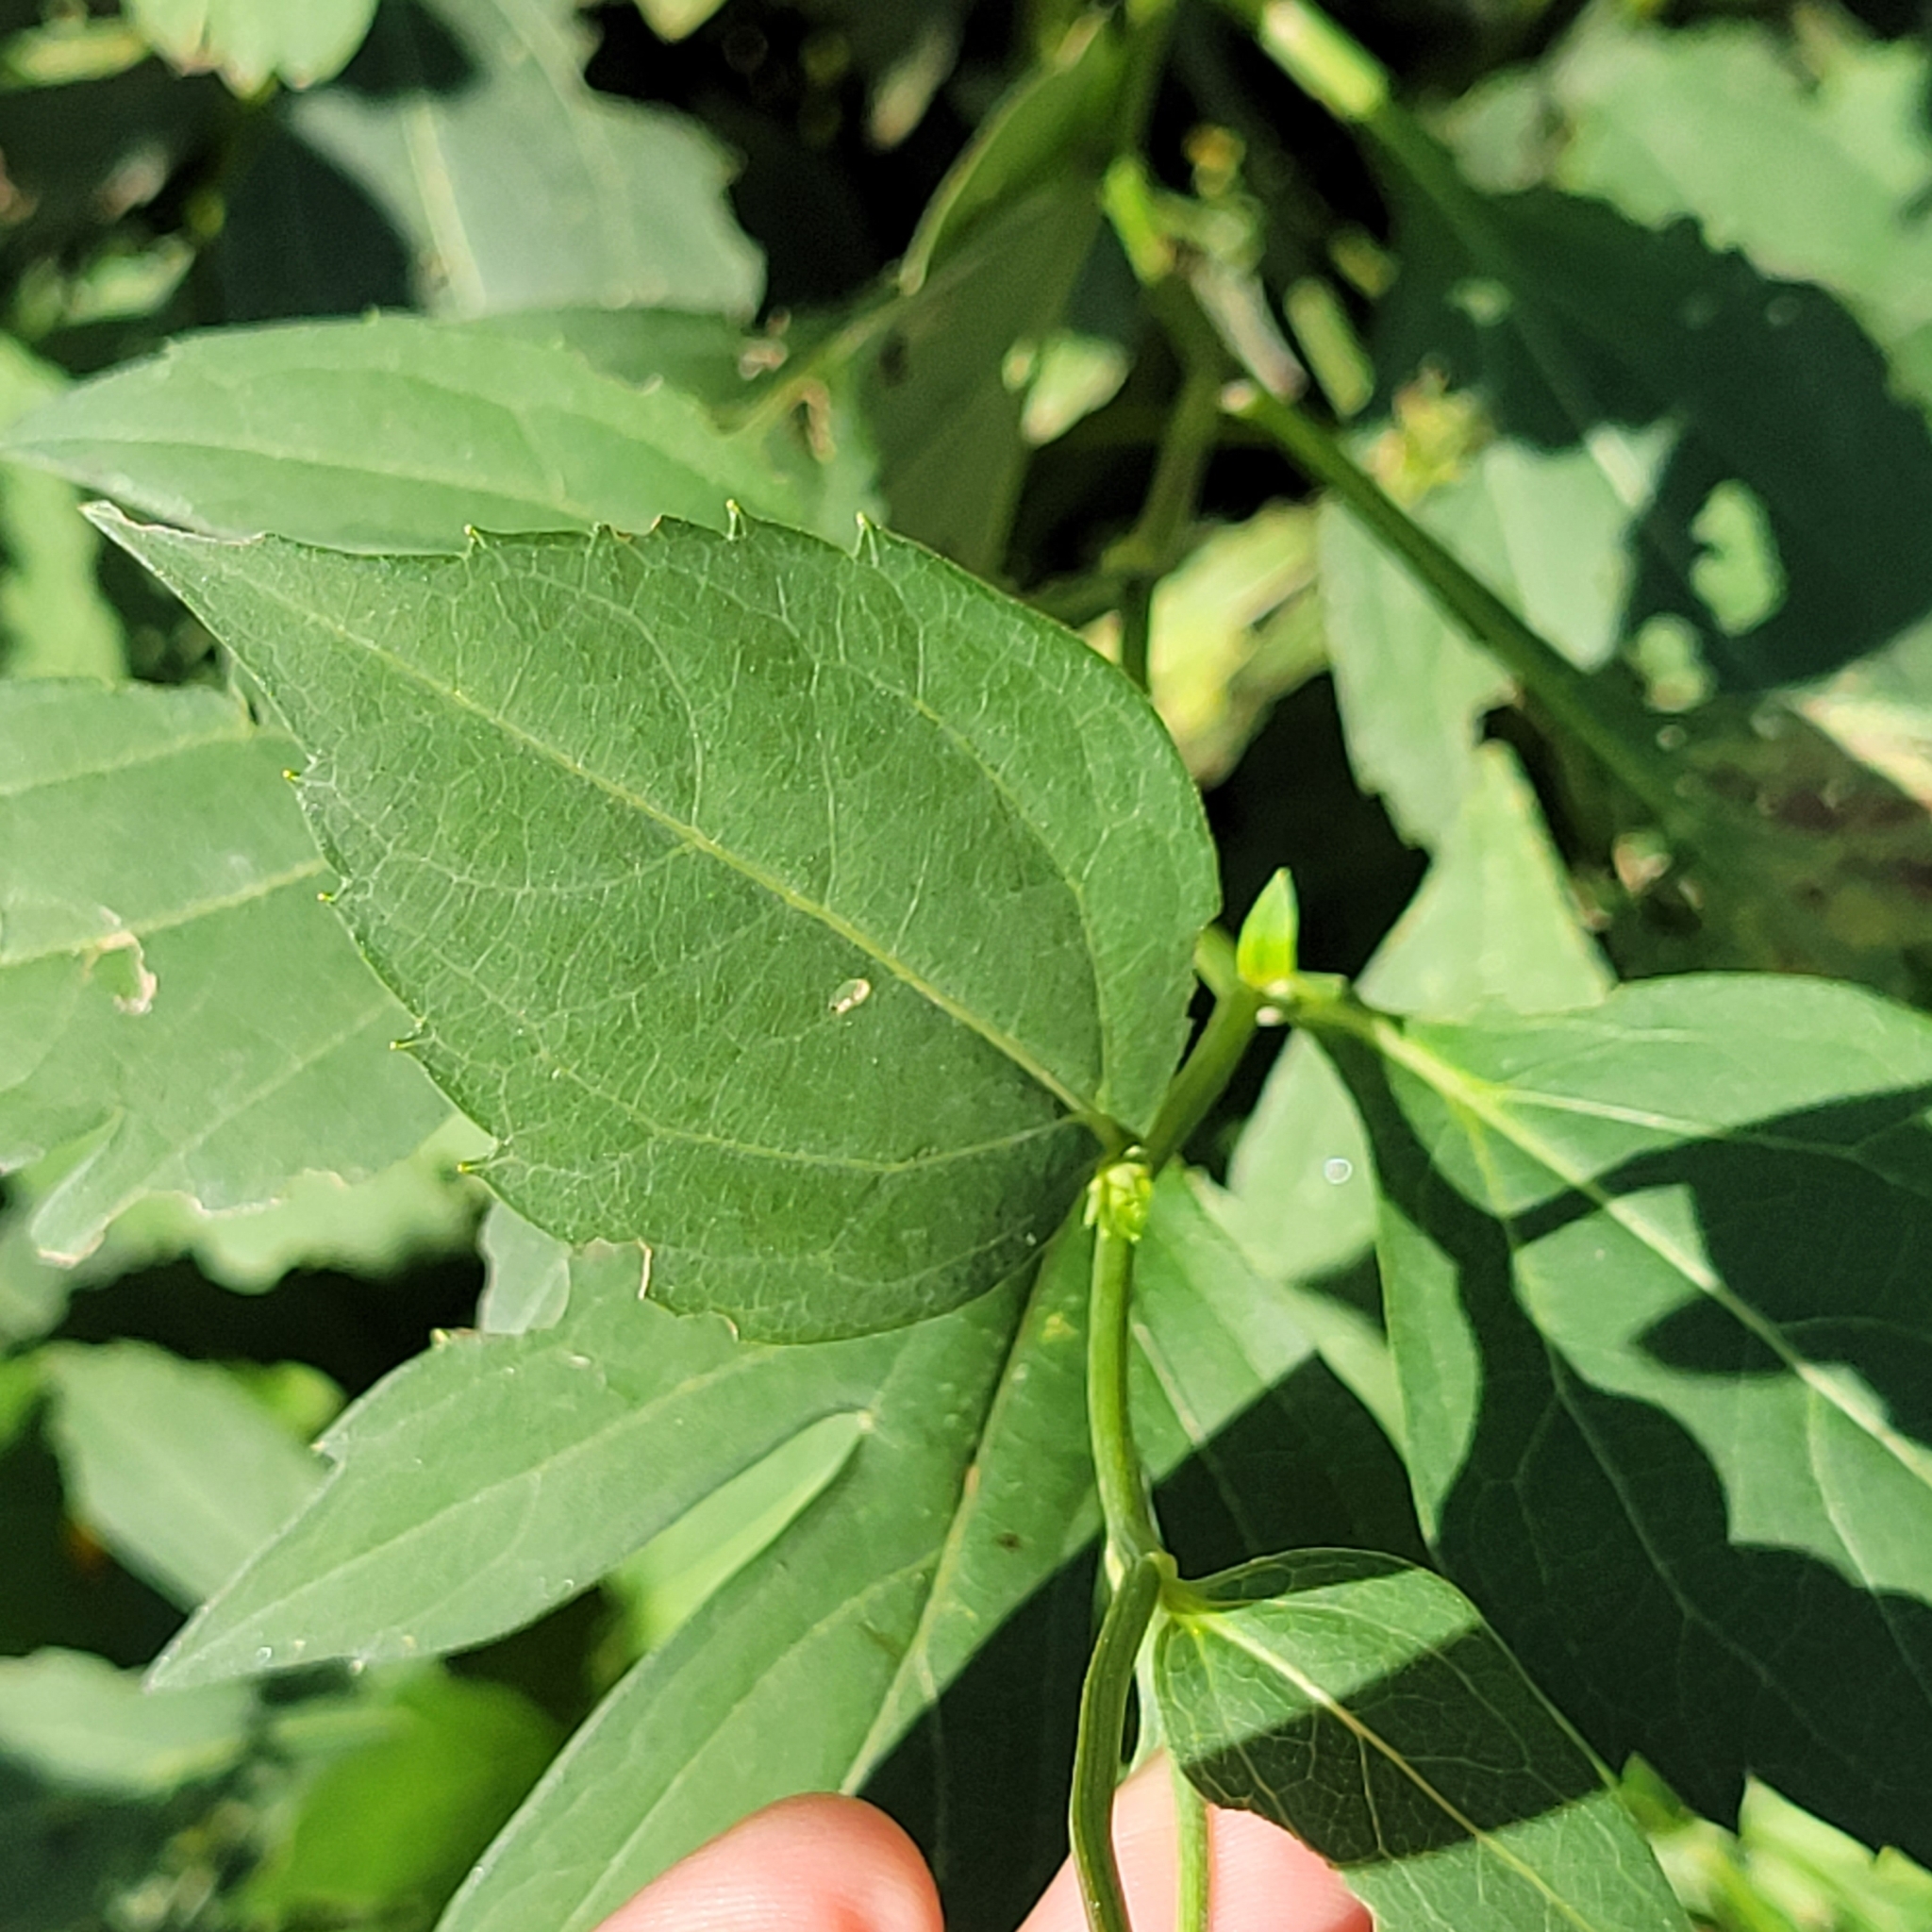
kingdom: Plantae
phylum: Tracheophyta
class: Magnoliopsida
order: Asterales
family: Asteraceae
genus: Rudbeckia
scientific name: Rudbeckia laciniata
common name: Coneflower
